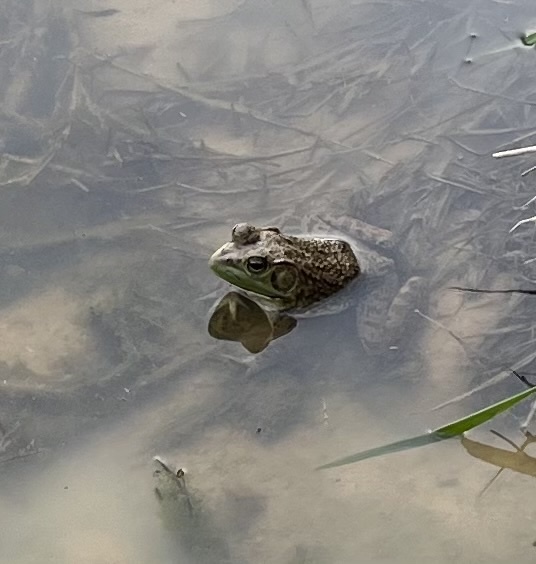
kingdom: Animalia
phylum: Chordata
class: Amphibia
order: Anura
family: Ranidae
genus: Lithobates
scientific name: Lithobates catesbeianus
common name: American bullfrog
